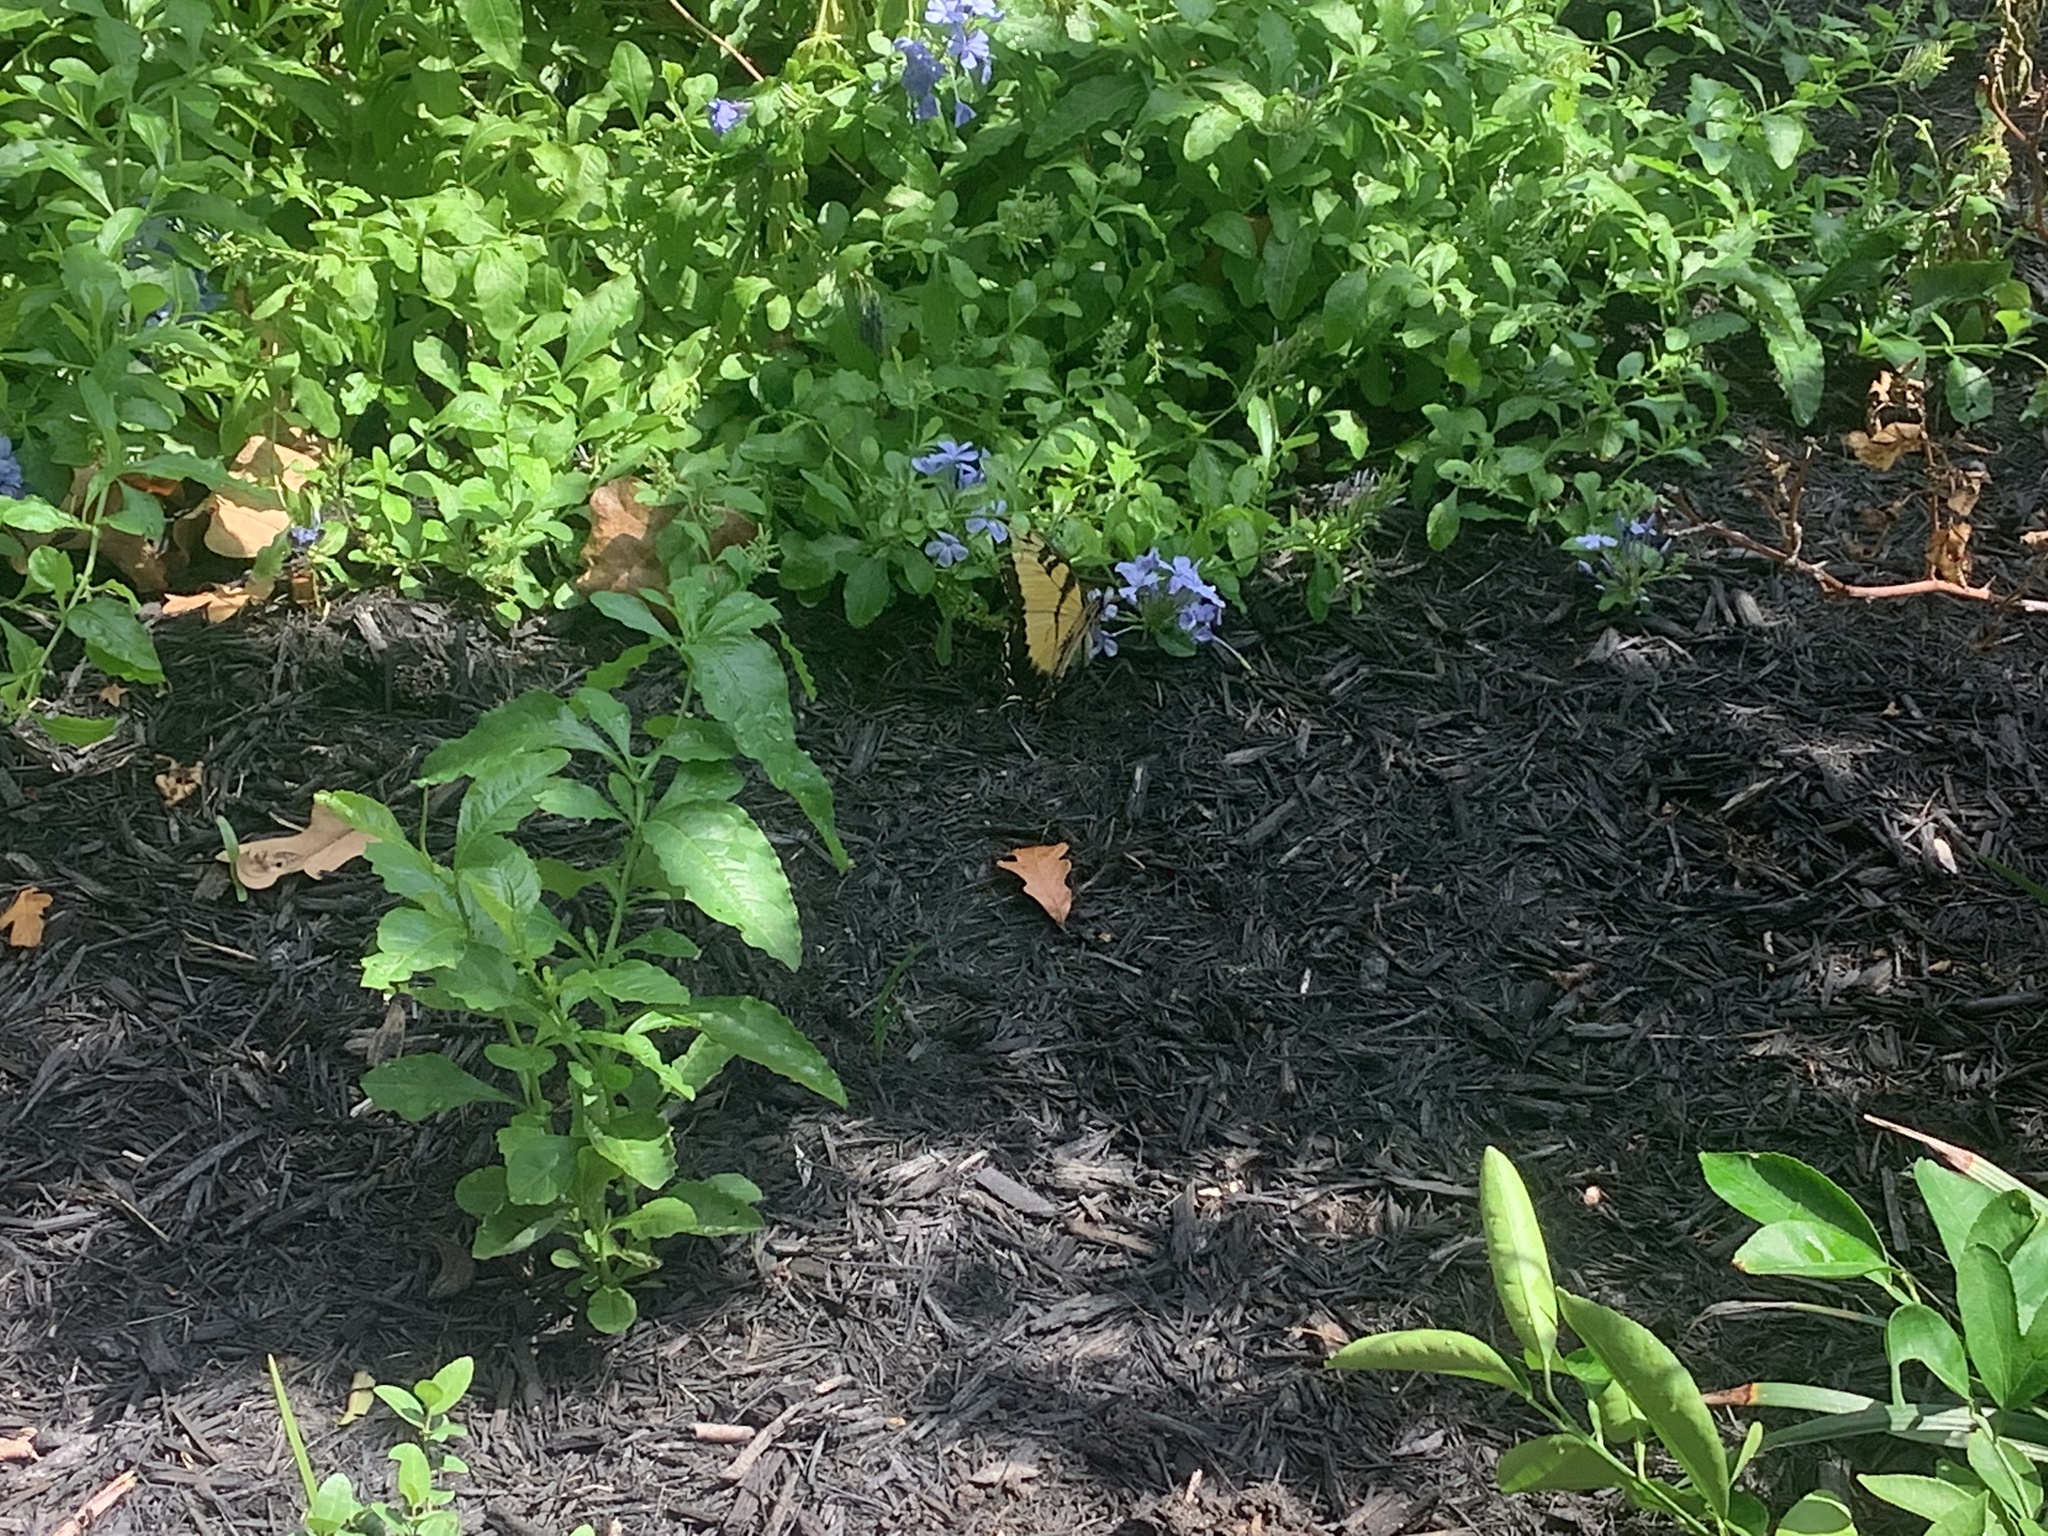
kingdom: Animalia
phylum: Arthropoda
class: Insecta
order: Lepidoptera
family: Papilionidae
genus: Papilio
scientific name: Papilio glaucus
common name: Tiger swallowtail
